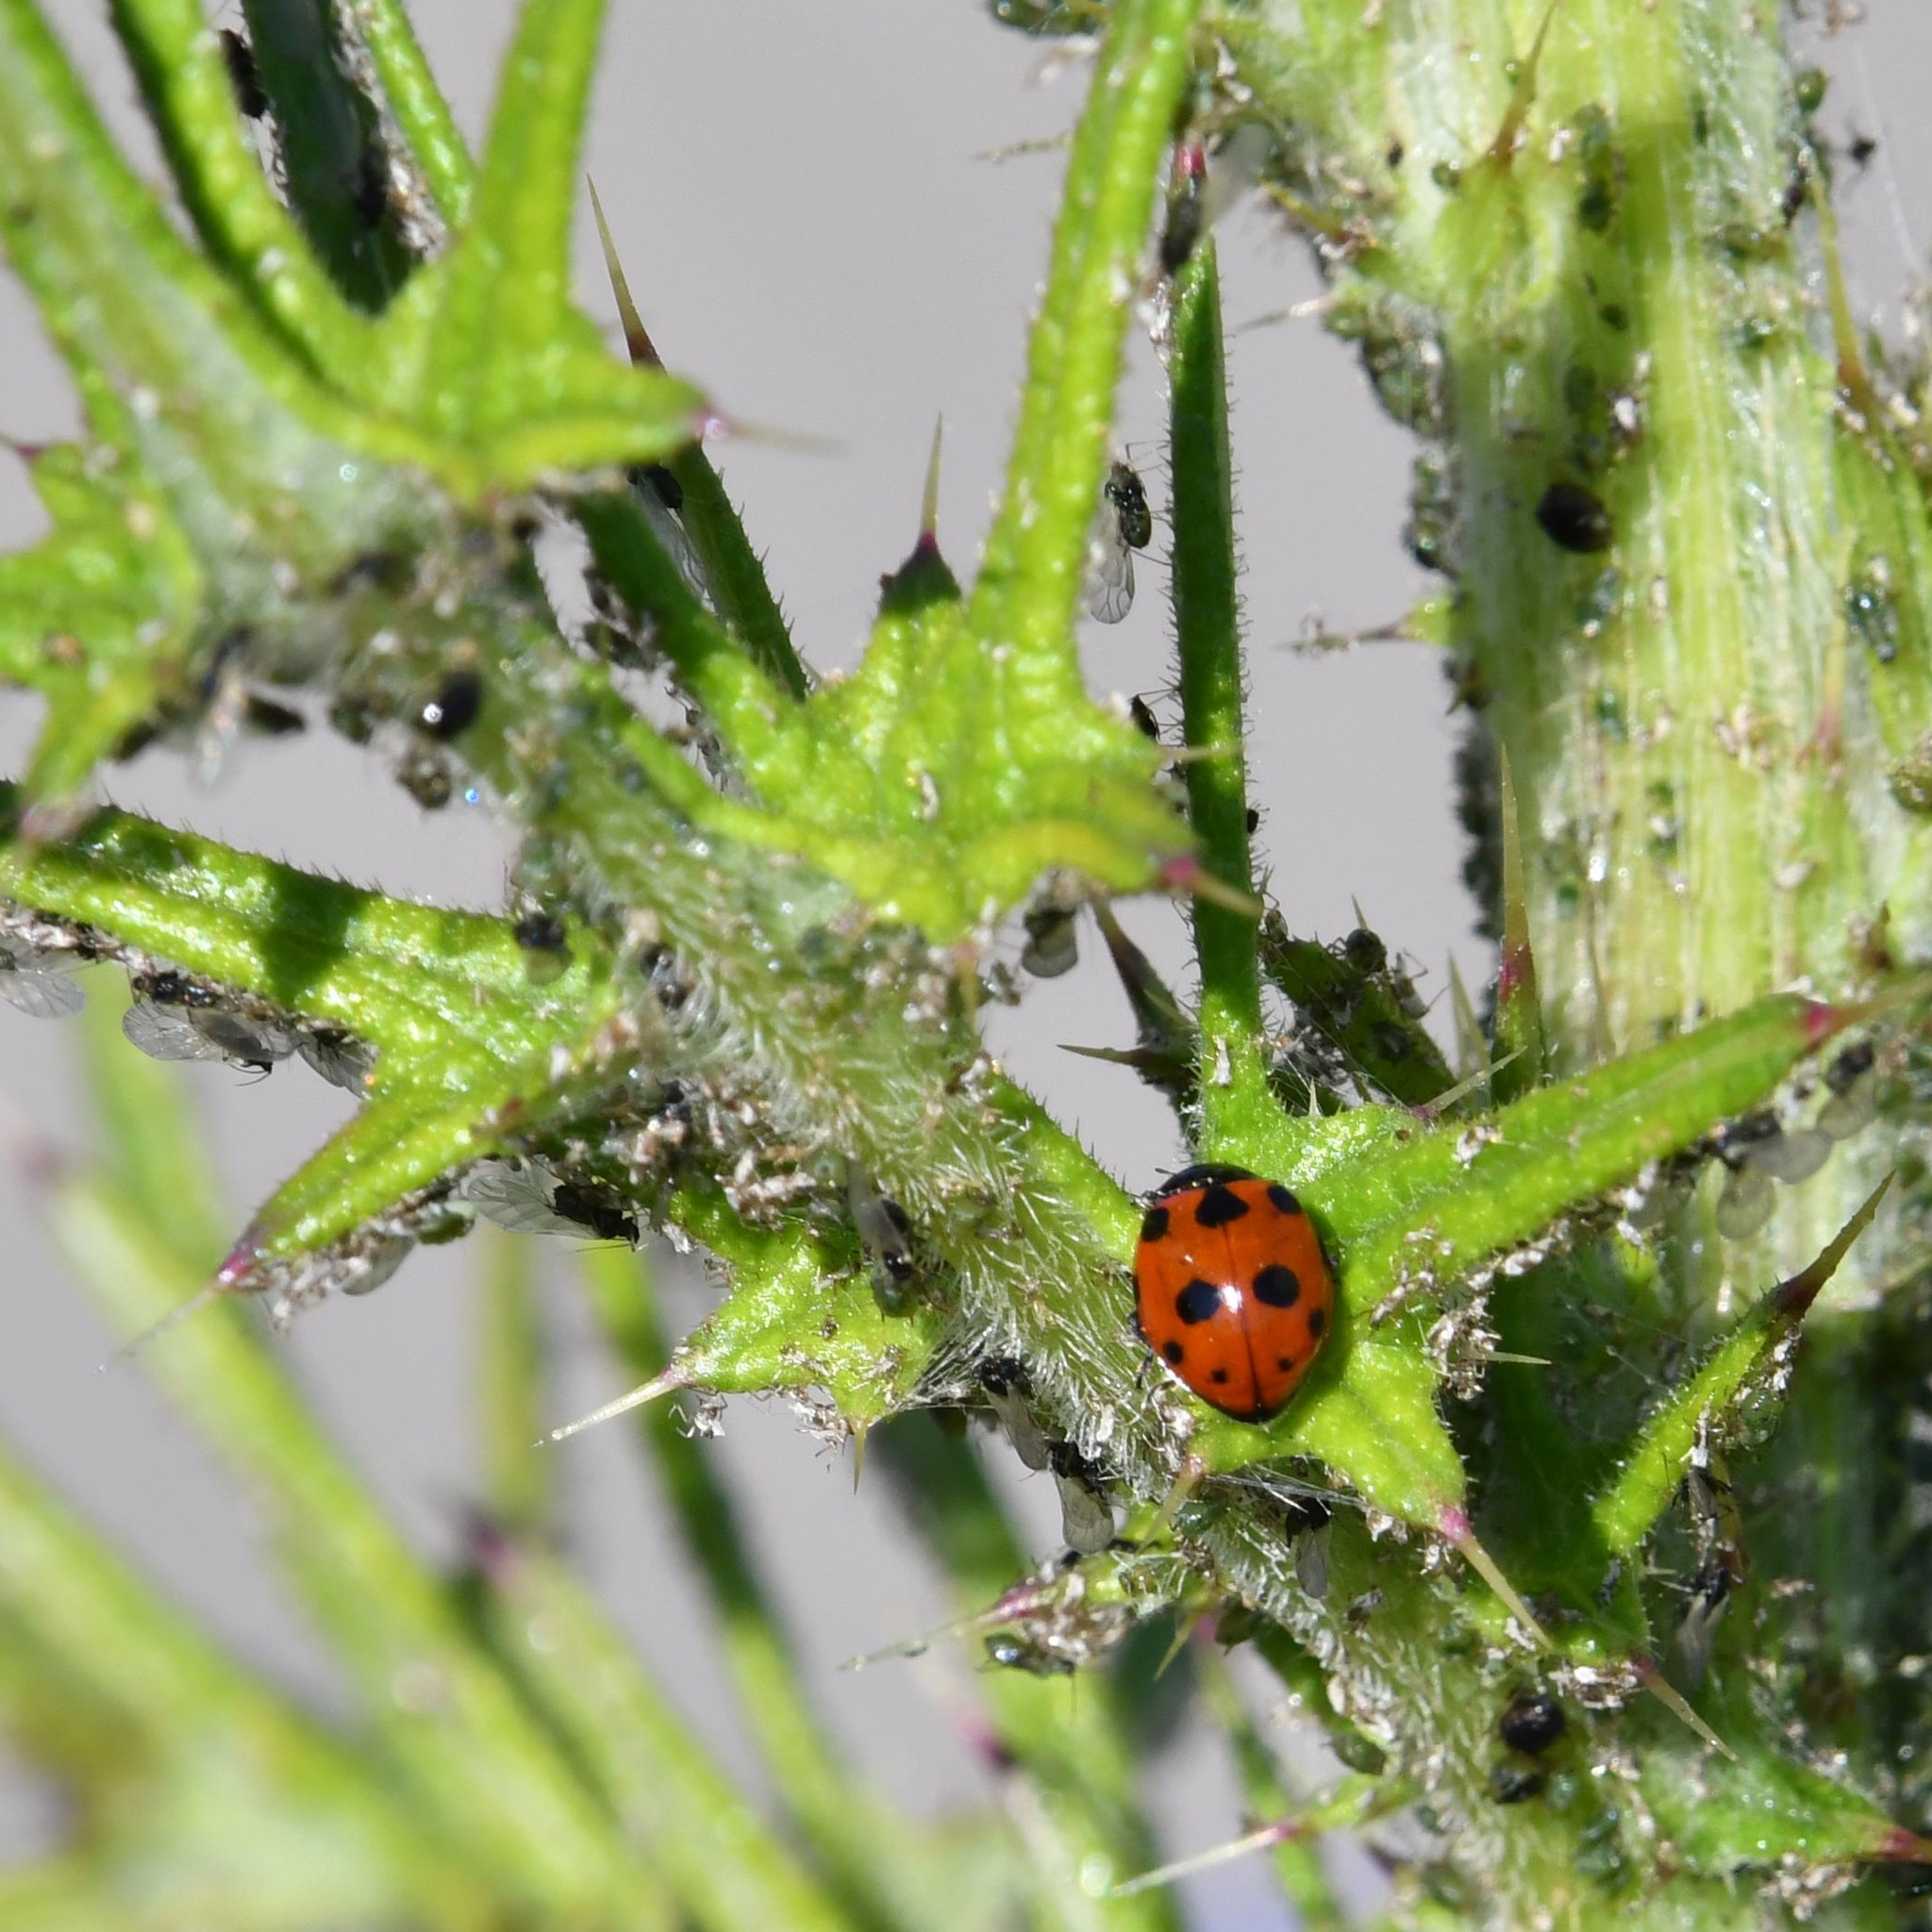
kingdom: Animalia
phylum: Arthropoda
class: Insecta
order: Coleoptera
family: Coccinellidae
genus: Ceratomegilla
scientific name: Ceratomegilla undecimnotata
